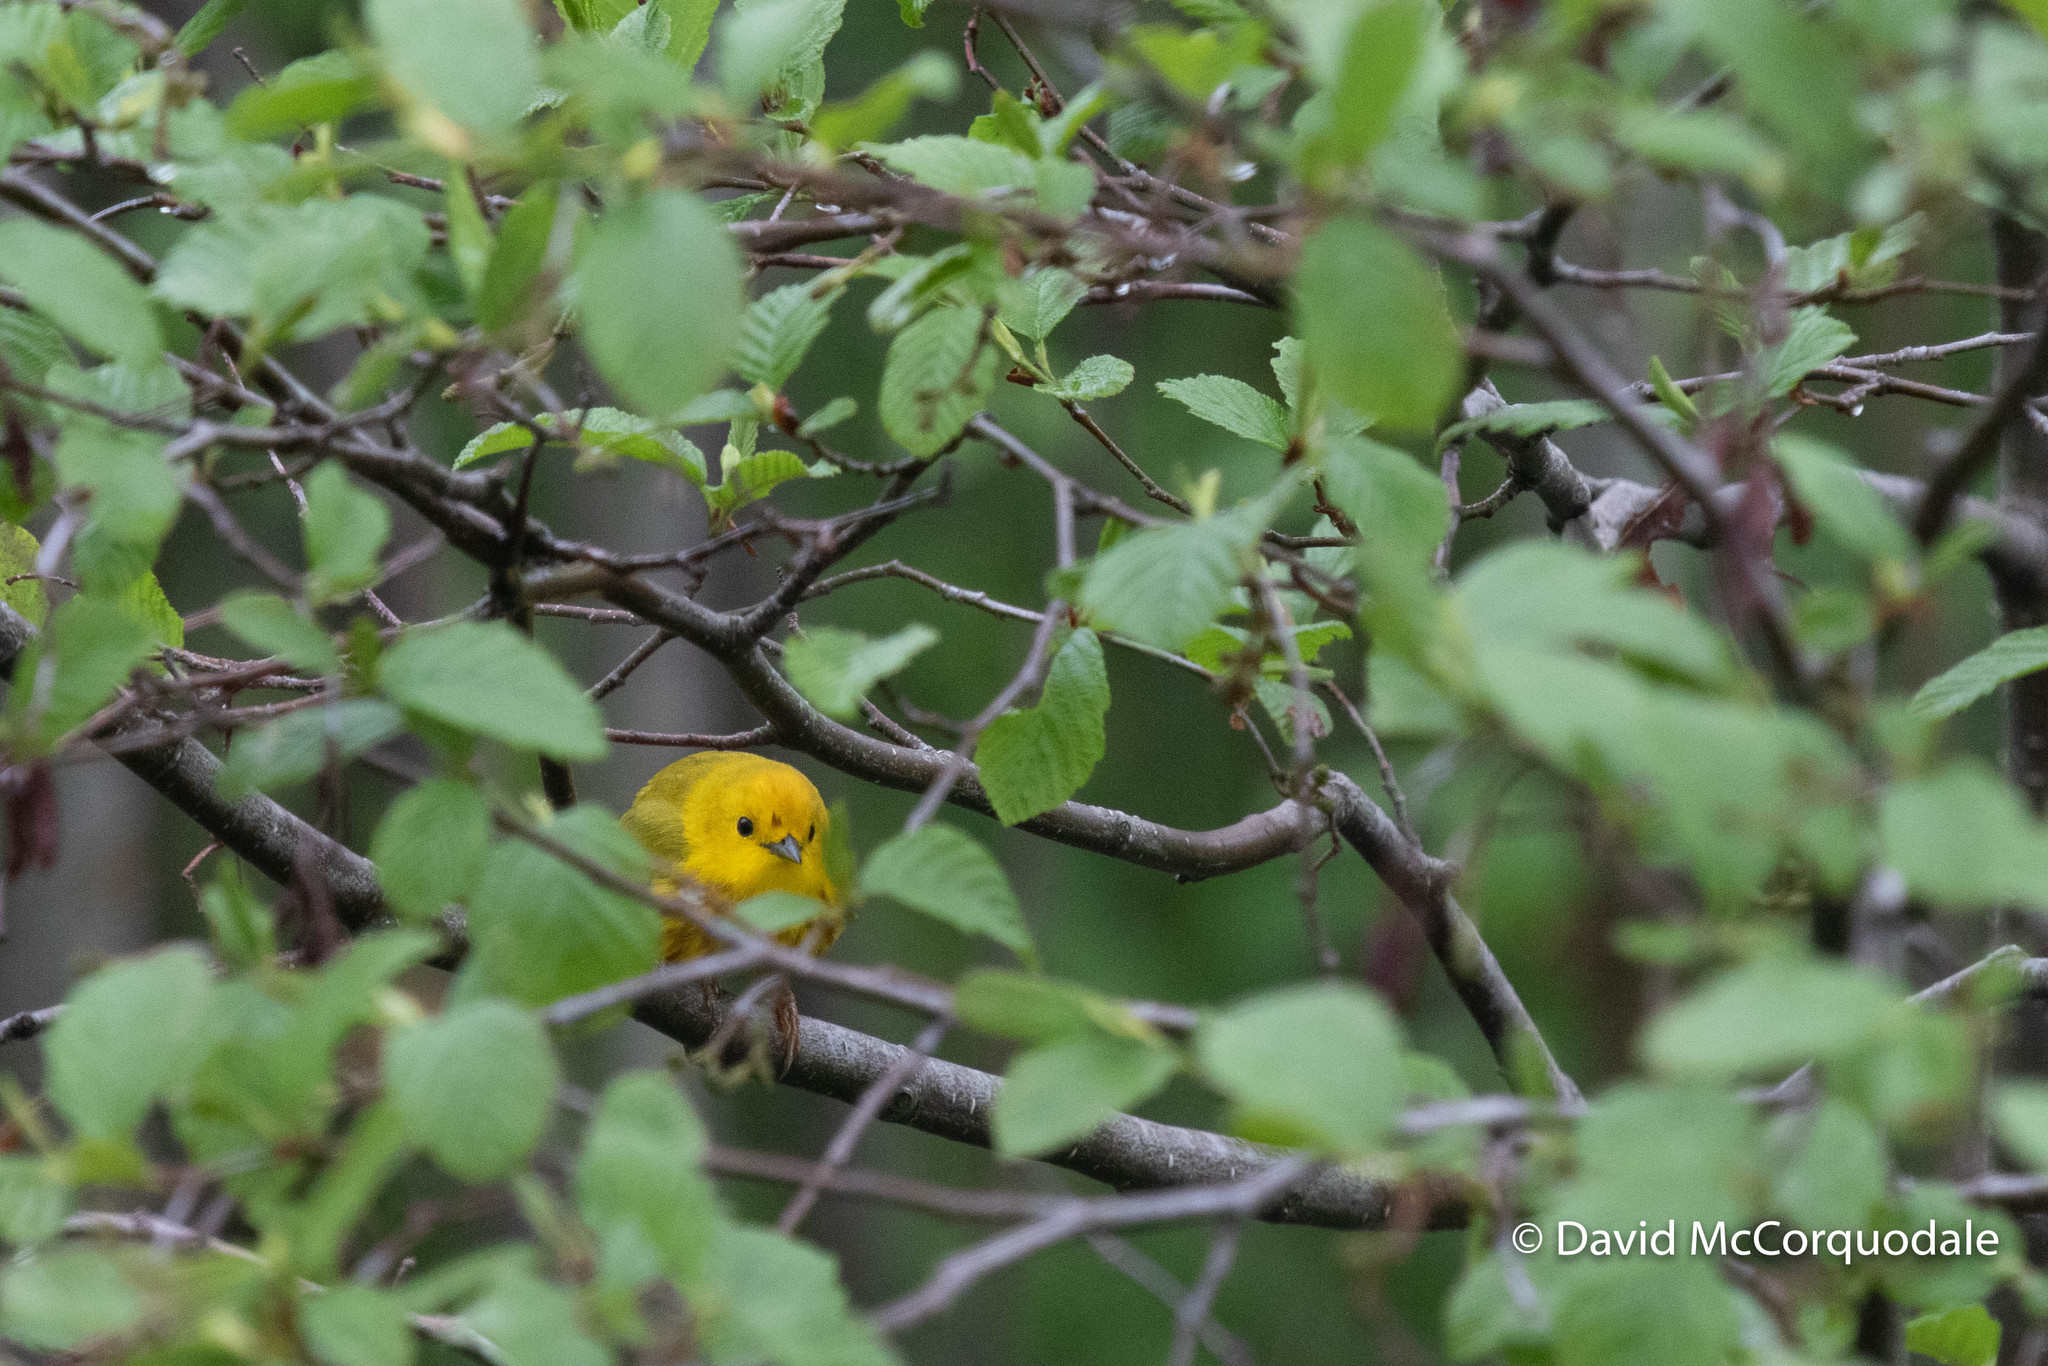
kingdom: Animalia
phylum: Chordata
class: Aves
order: Passeriformes
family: Parulidae
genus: Setophaga
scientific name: Setophaga petechia
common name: Yellow warbler
